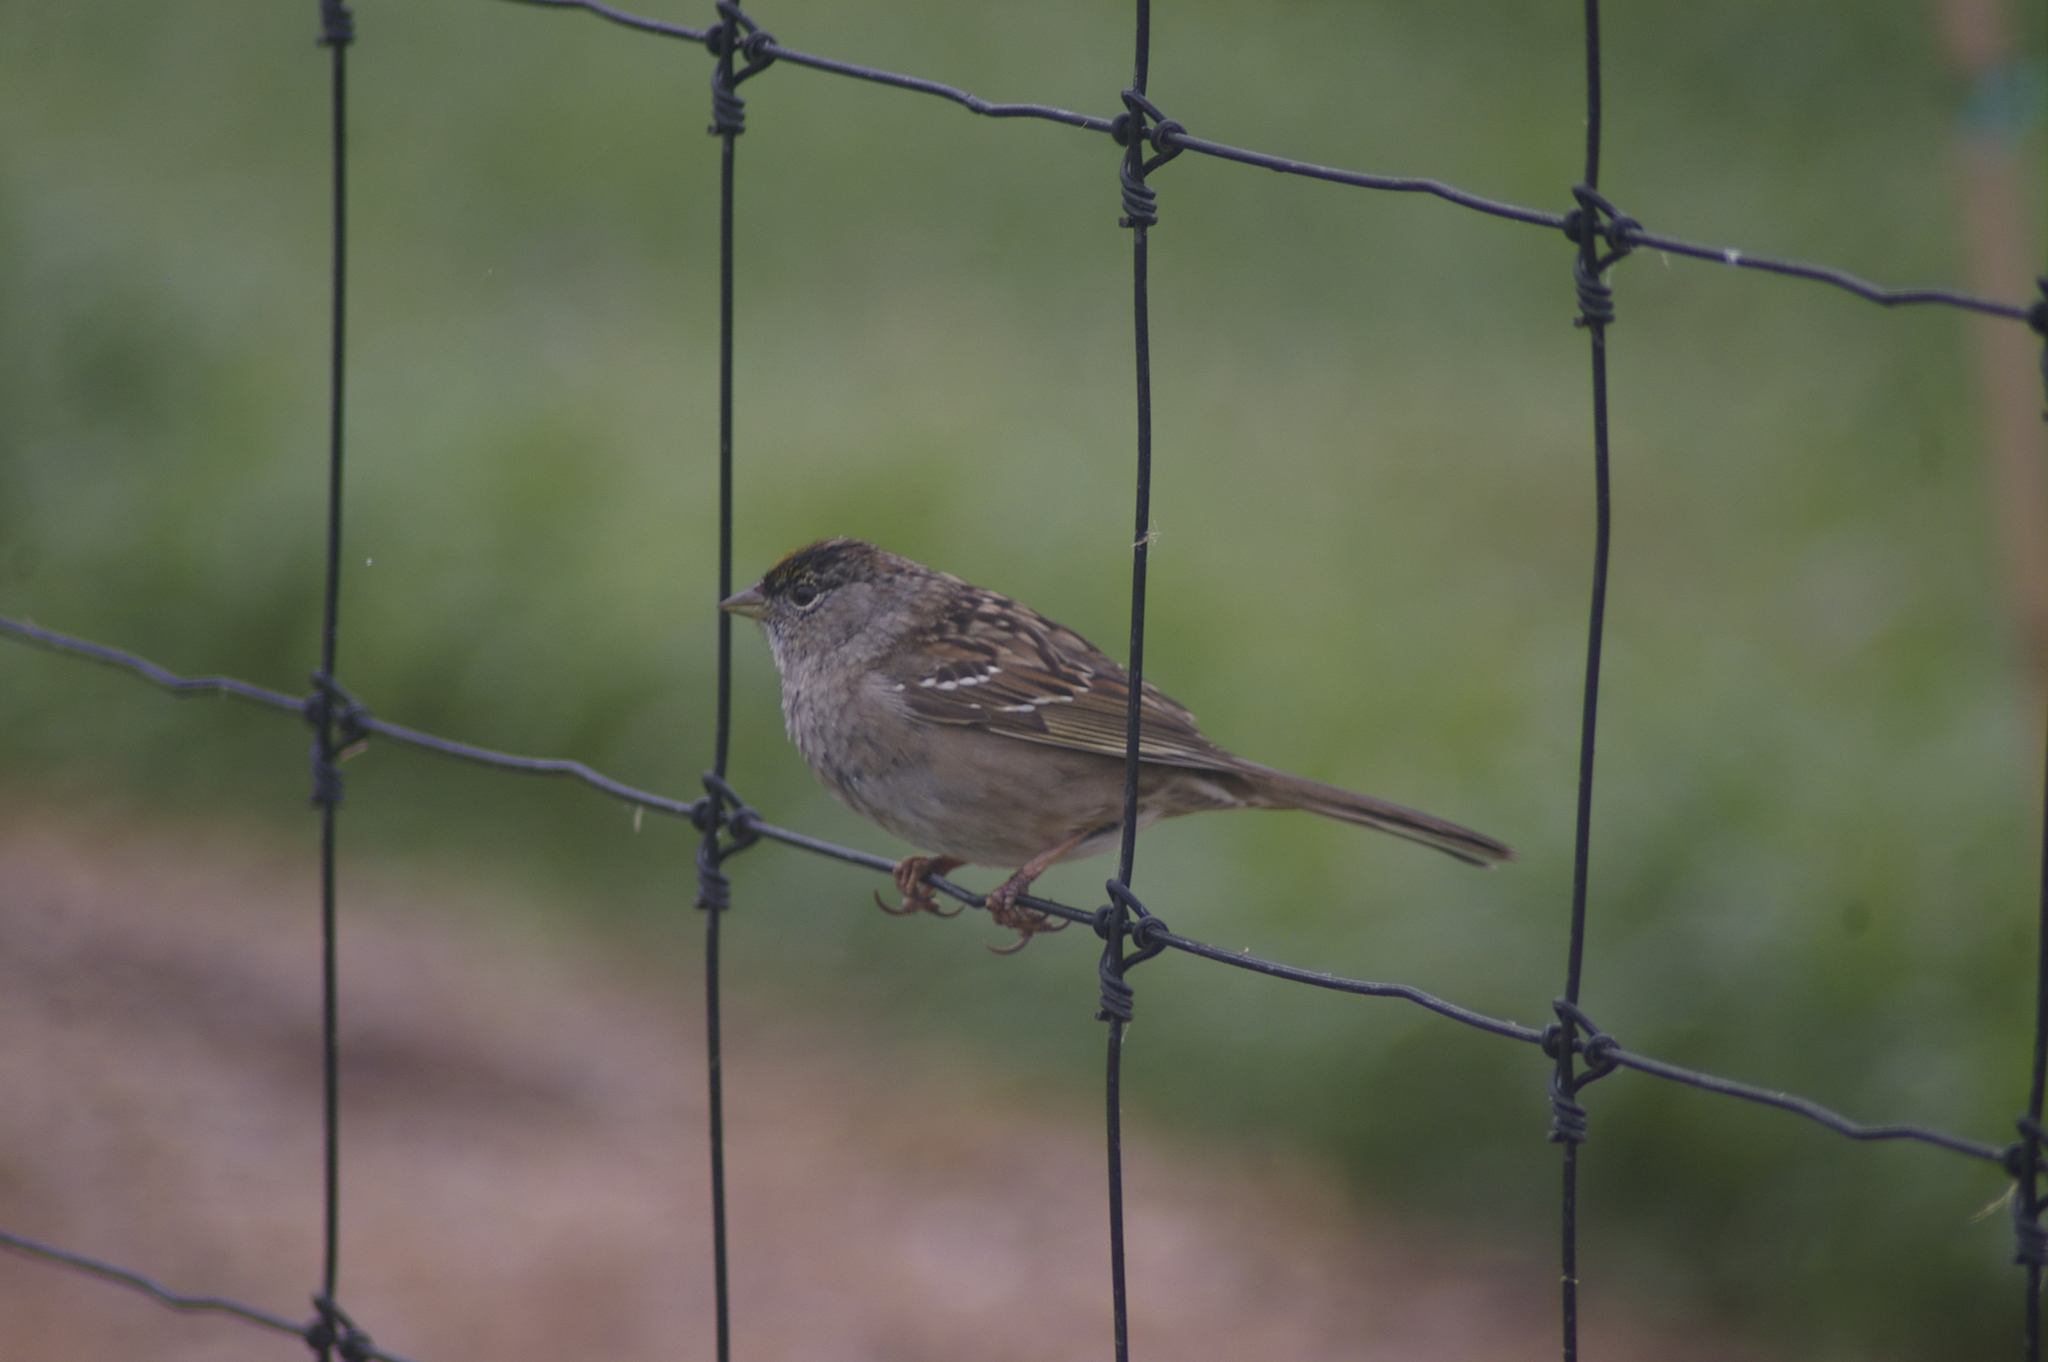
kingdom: Animalia
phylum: Chordata
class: Aves
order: Passeriformes
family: Passerellidae
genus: Zonotrichia
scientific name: Zonotrichia atricapilla
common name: Golden-crowned sparrow
